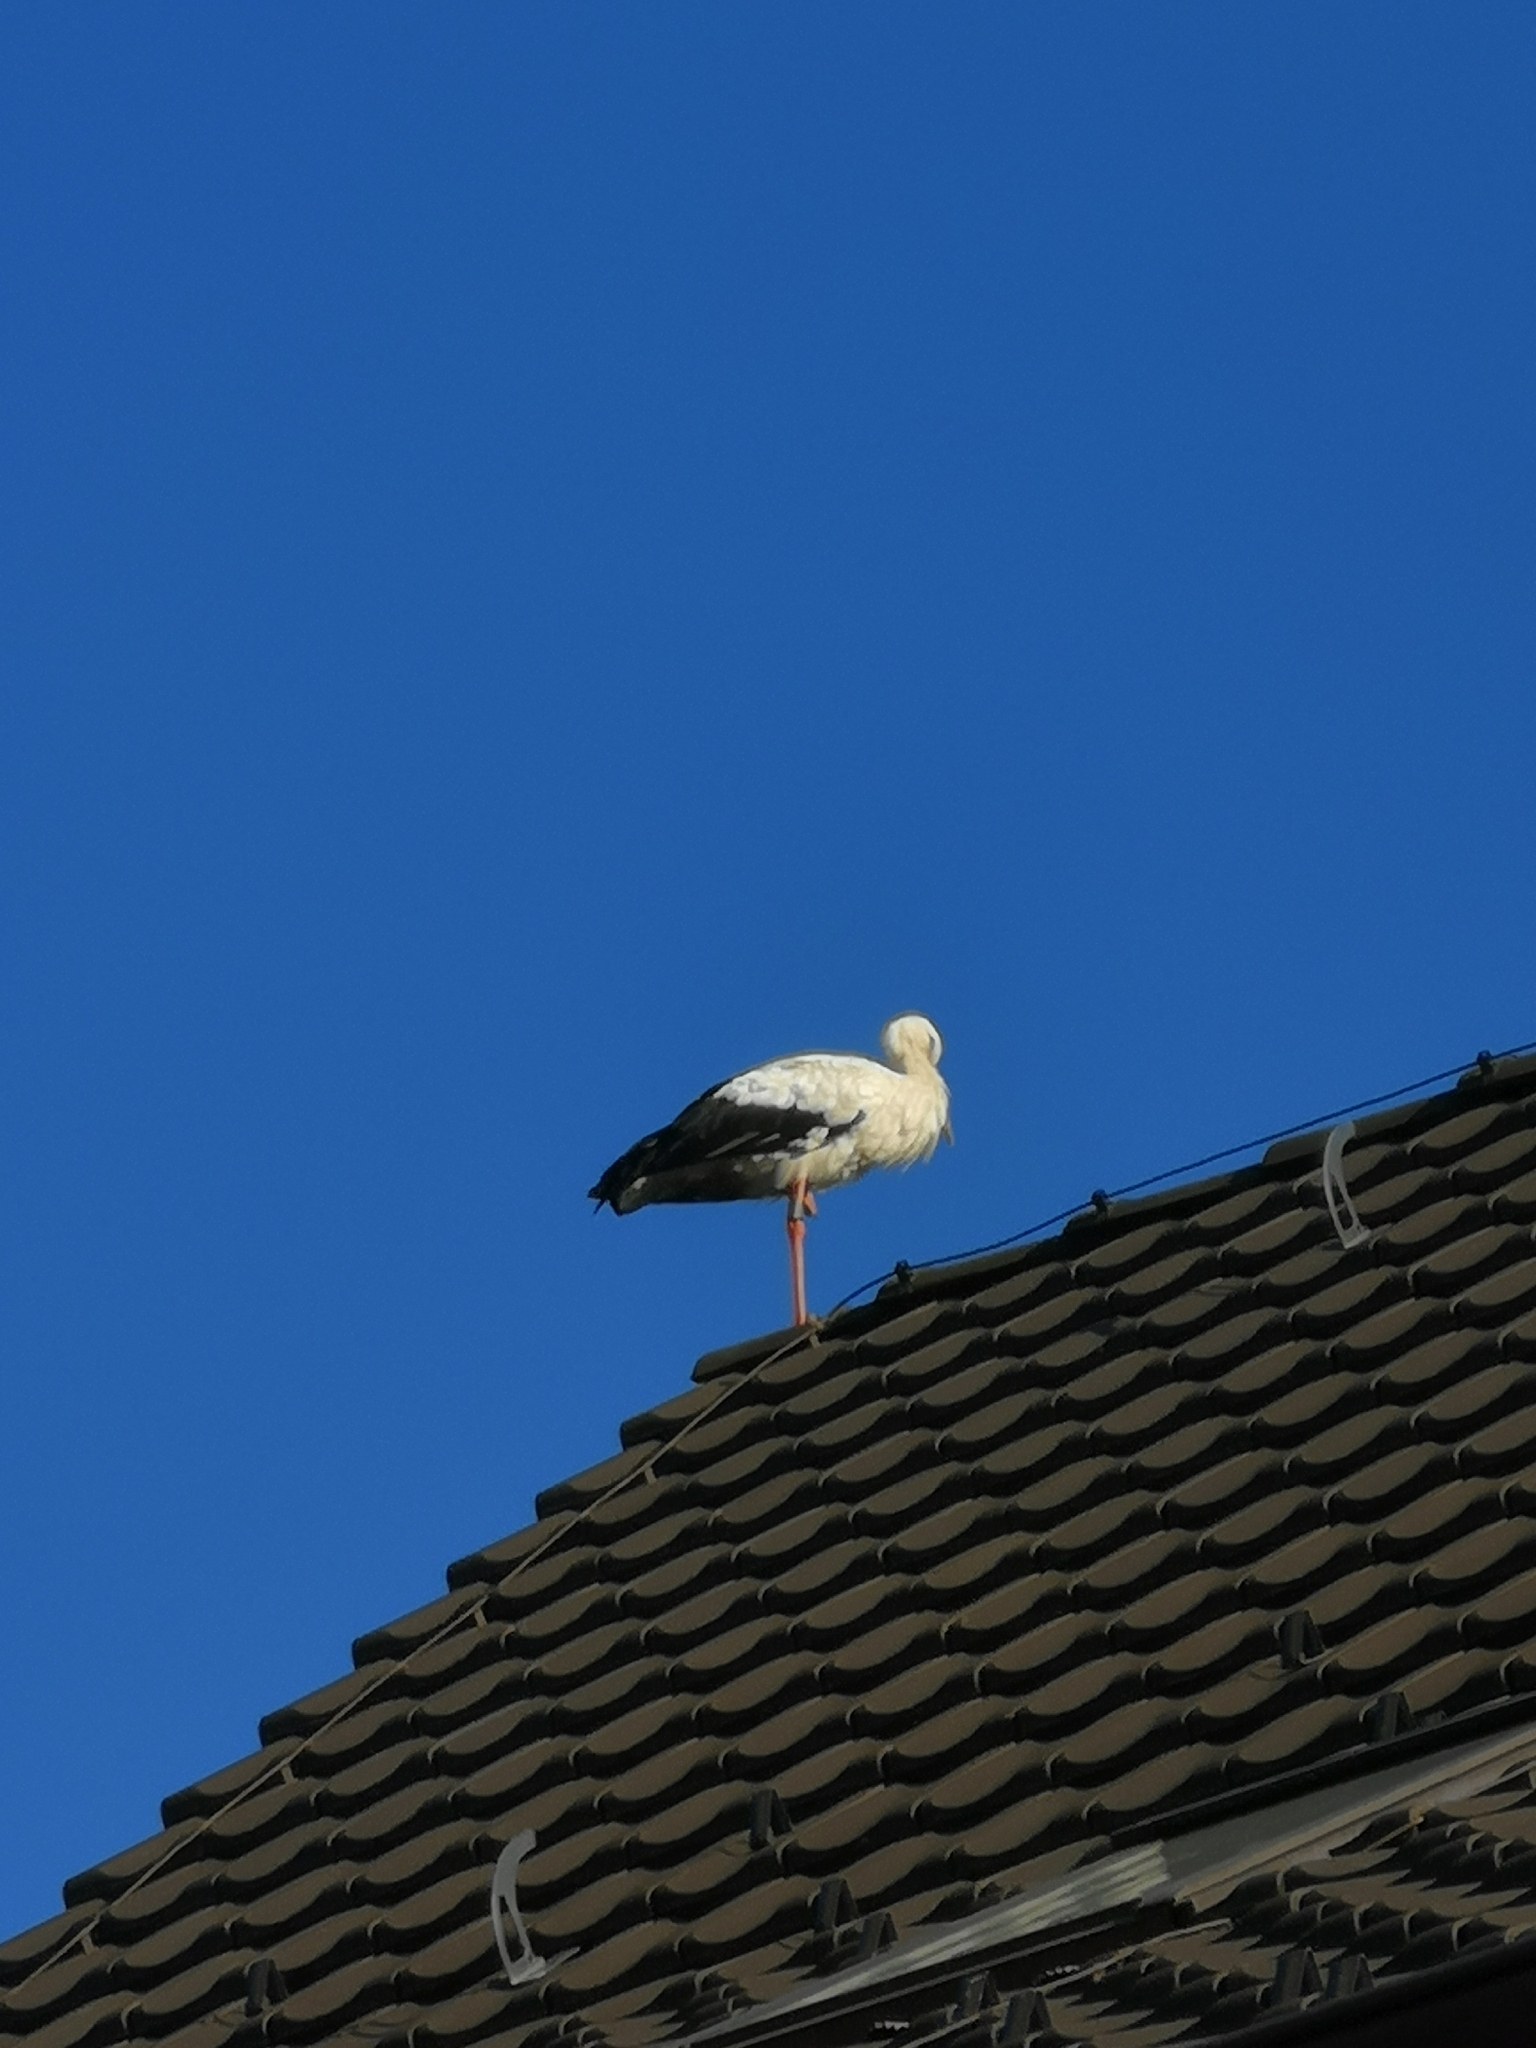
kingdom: Animalia
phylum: Chordata
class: Aves
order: Ciconiiformes
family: Ciconiidae
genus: Ciconia
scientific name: Ciconia ciconia
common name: White stork
